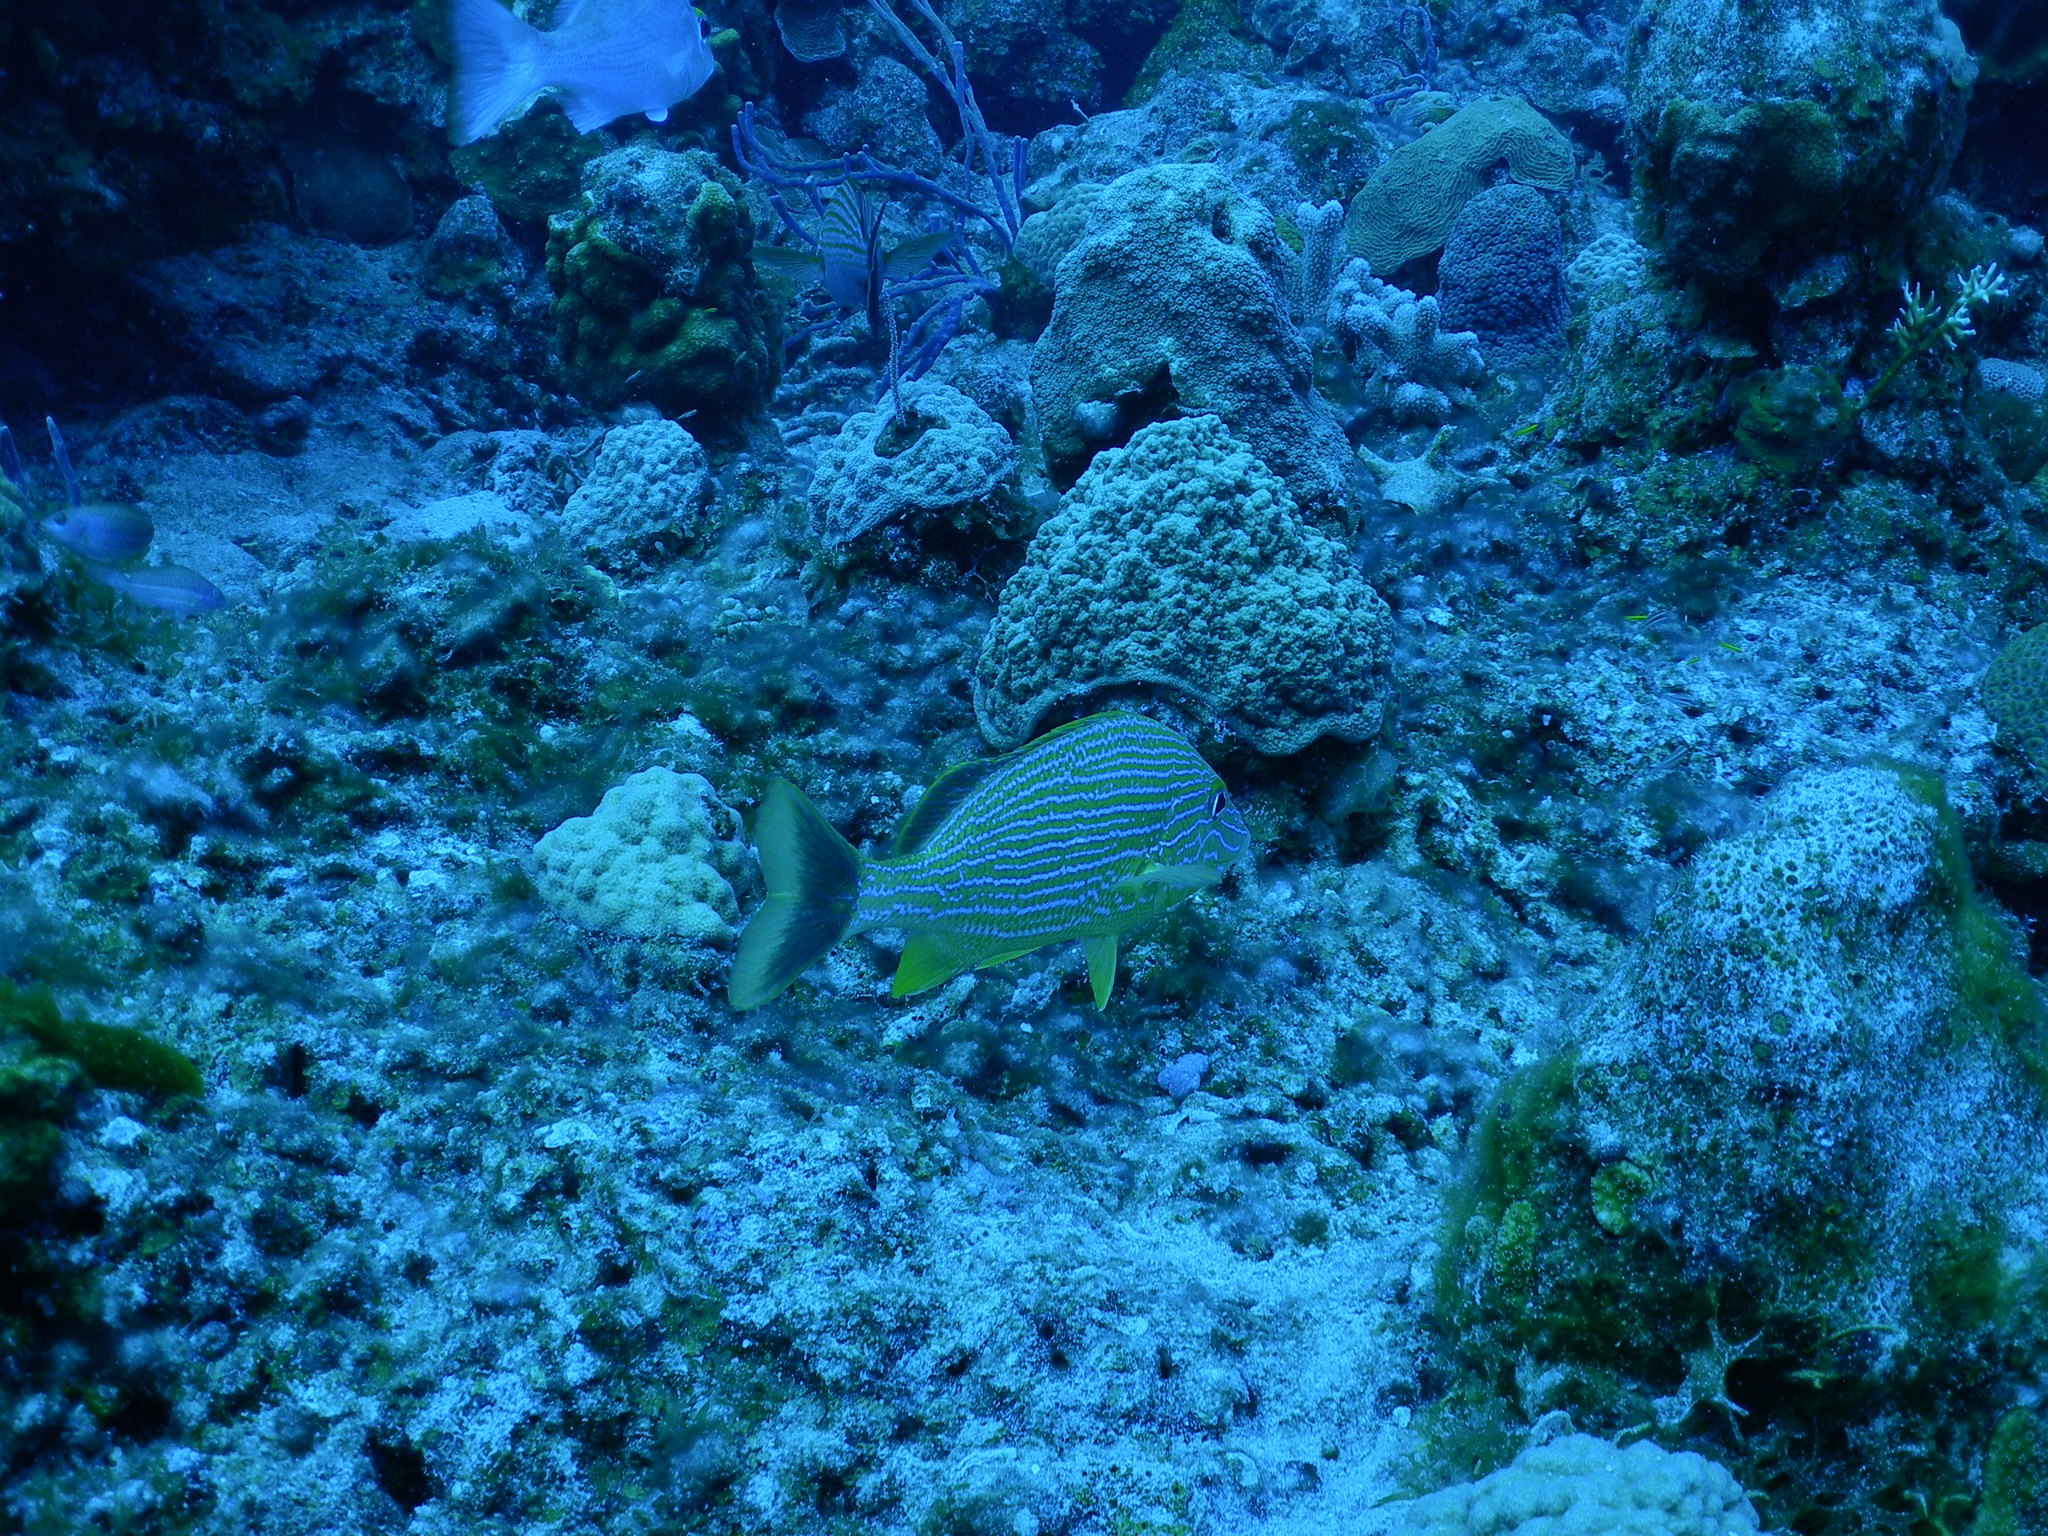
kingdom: Animalia
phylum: Chordata
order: Perciformes
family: Haemulidae
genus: Haemulon
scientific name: Haemulon sciurus
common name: Bluestriped grunt
